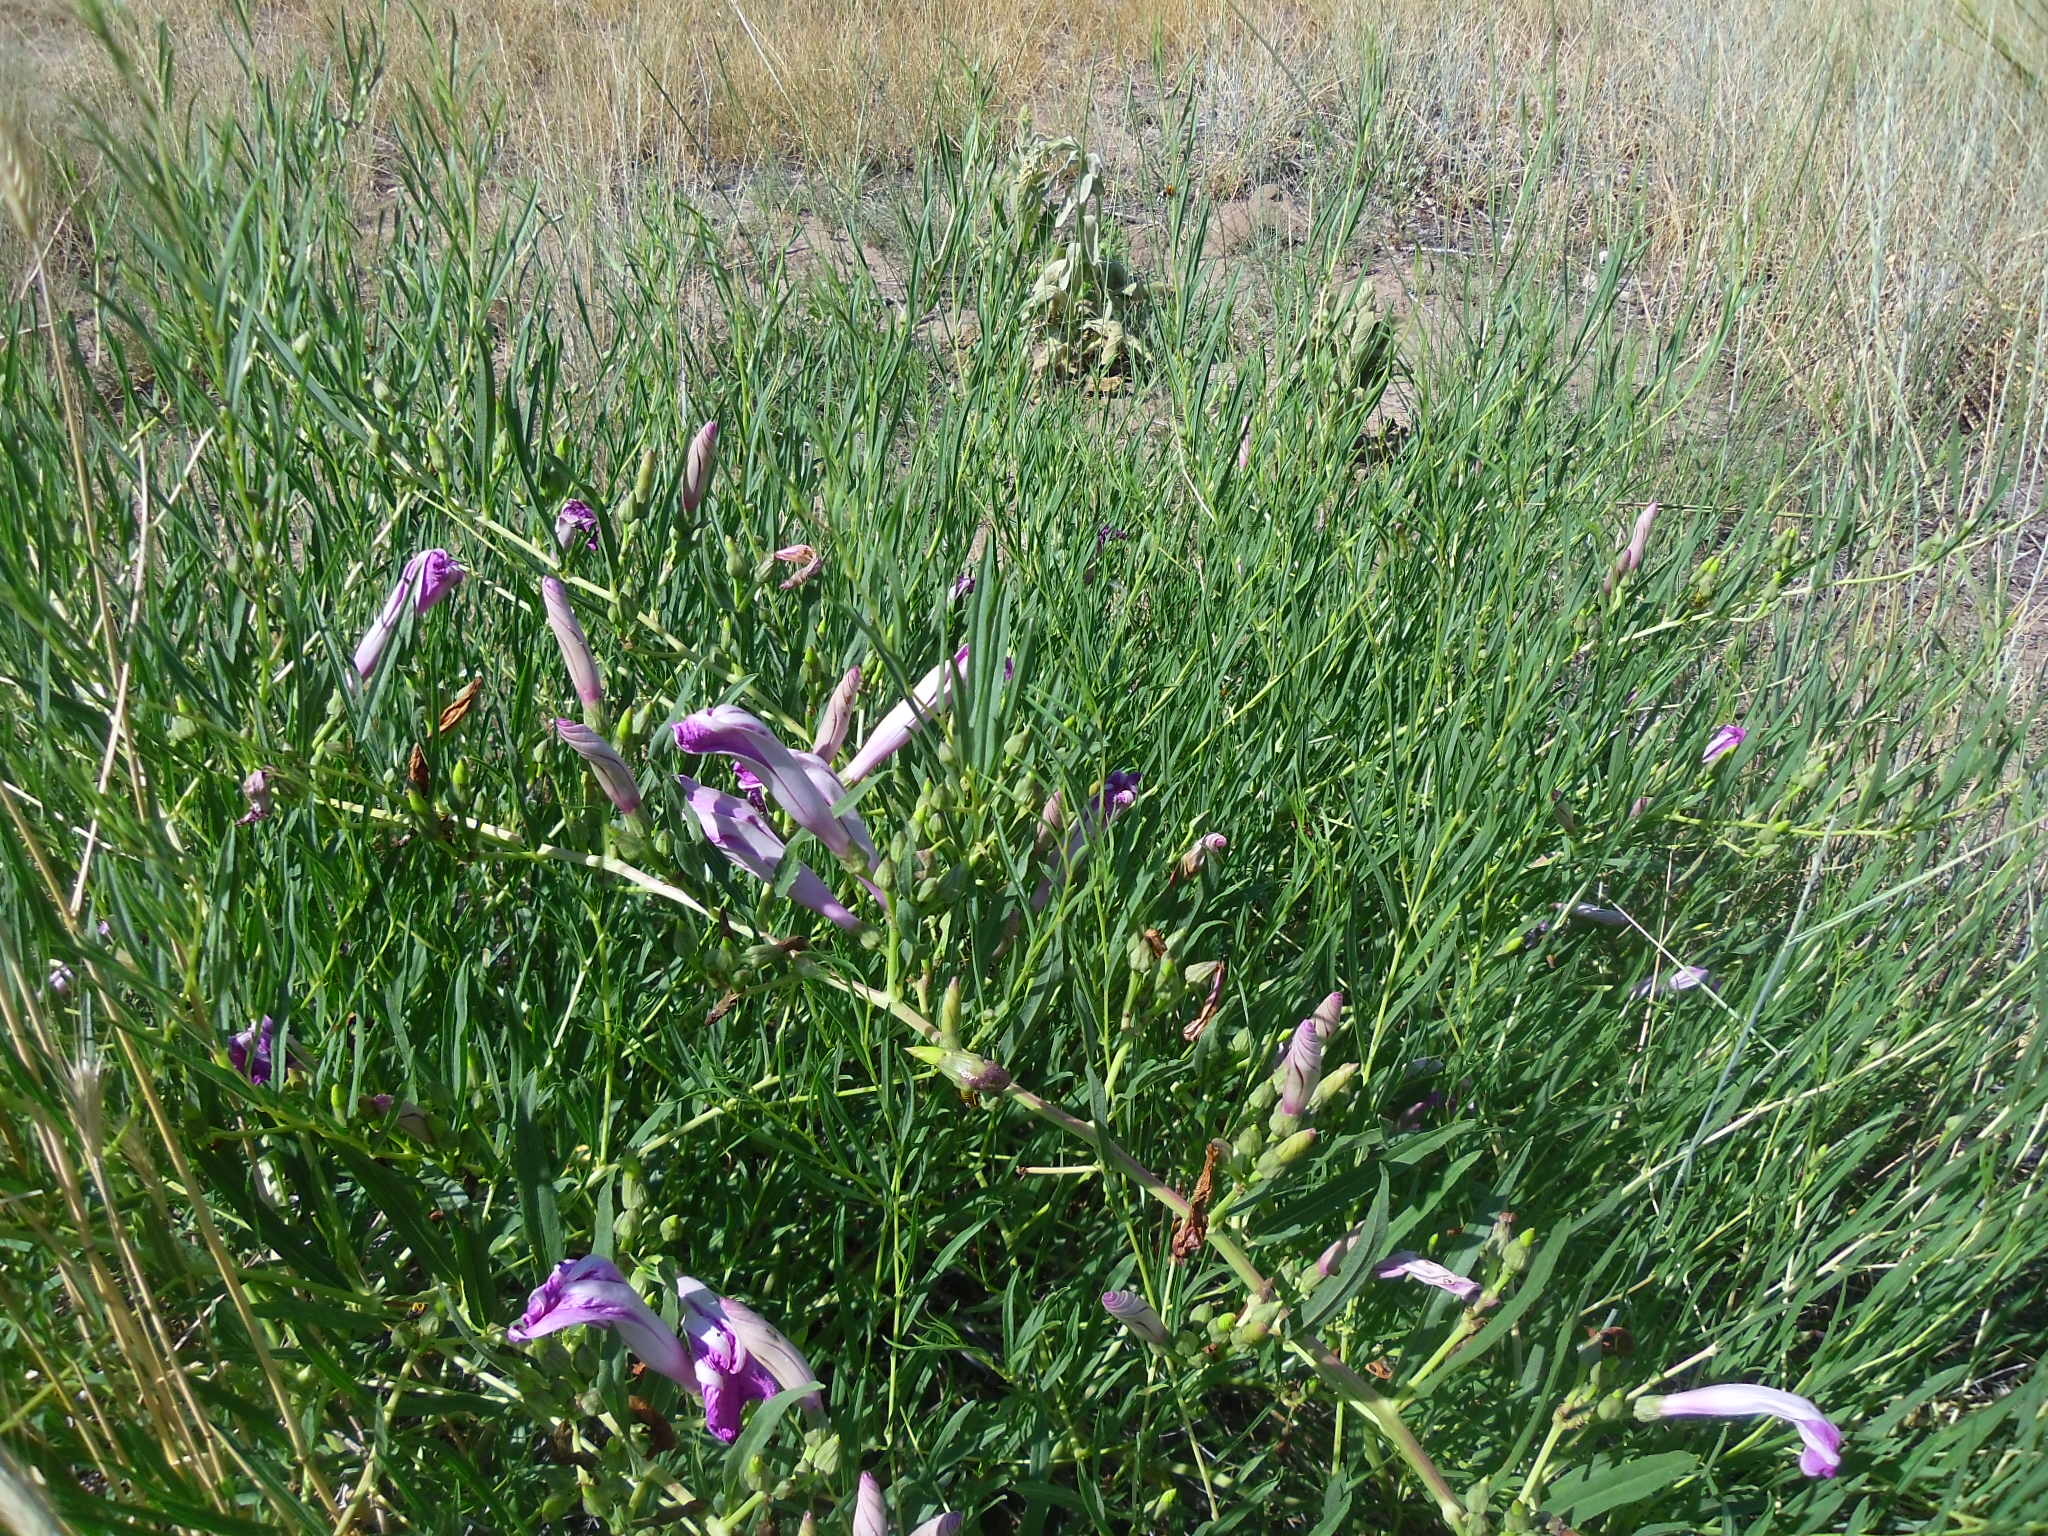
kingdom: Plantae
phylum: Tracheophyta
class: Magnoliopsida
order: Solanales
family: Convolvulaceae
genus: Ipomoea
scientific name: Ipomoea leptophylla
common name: Bush moonflower
